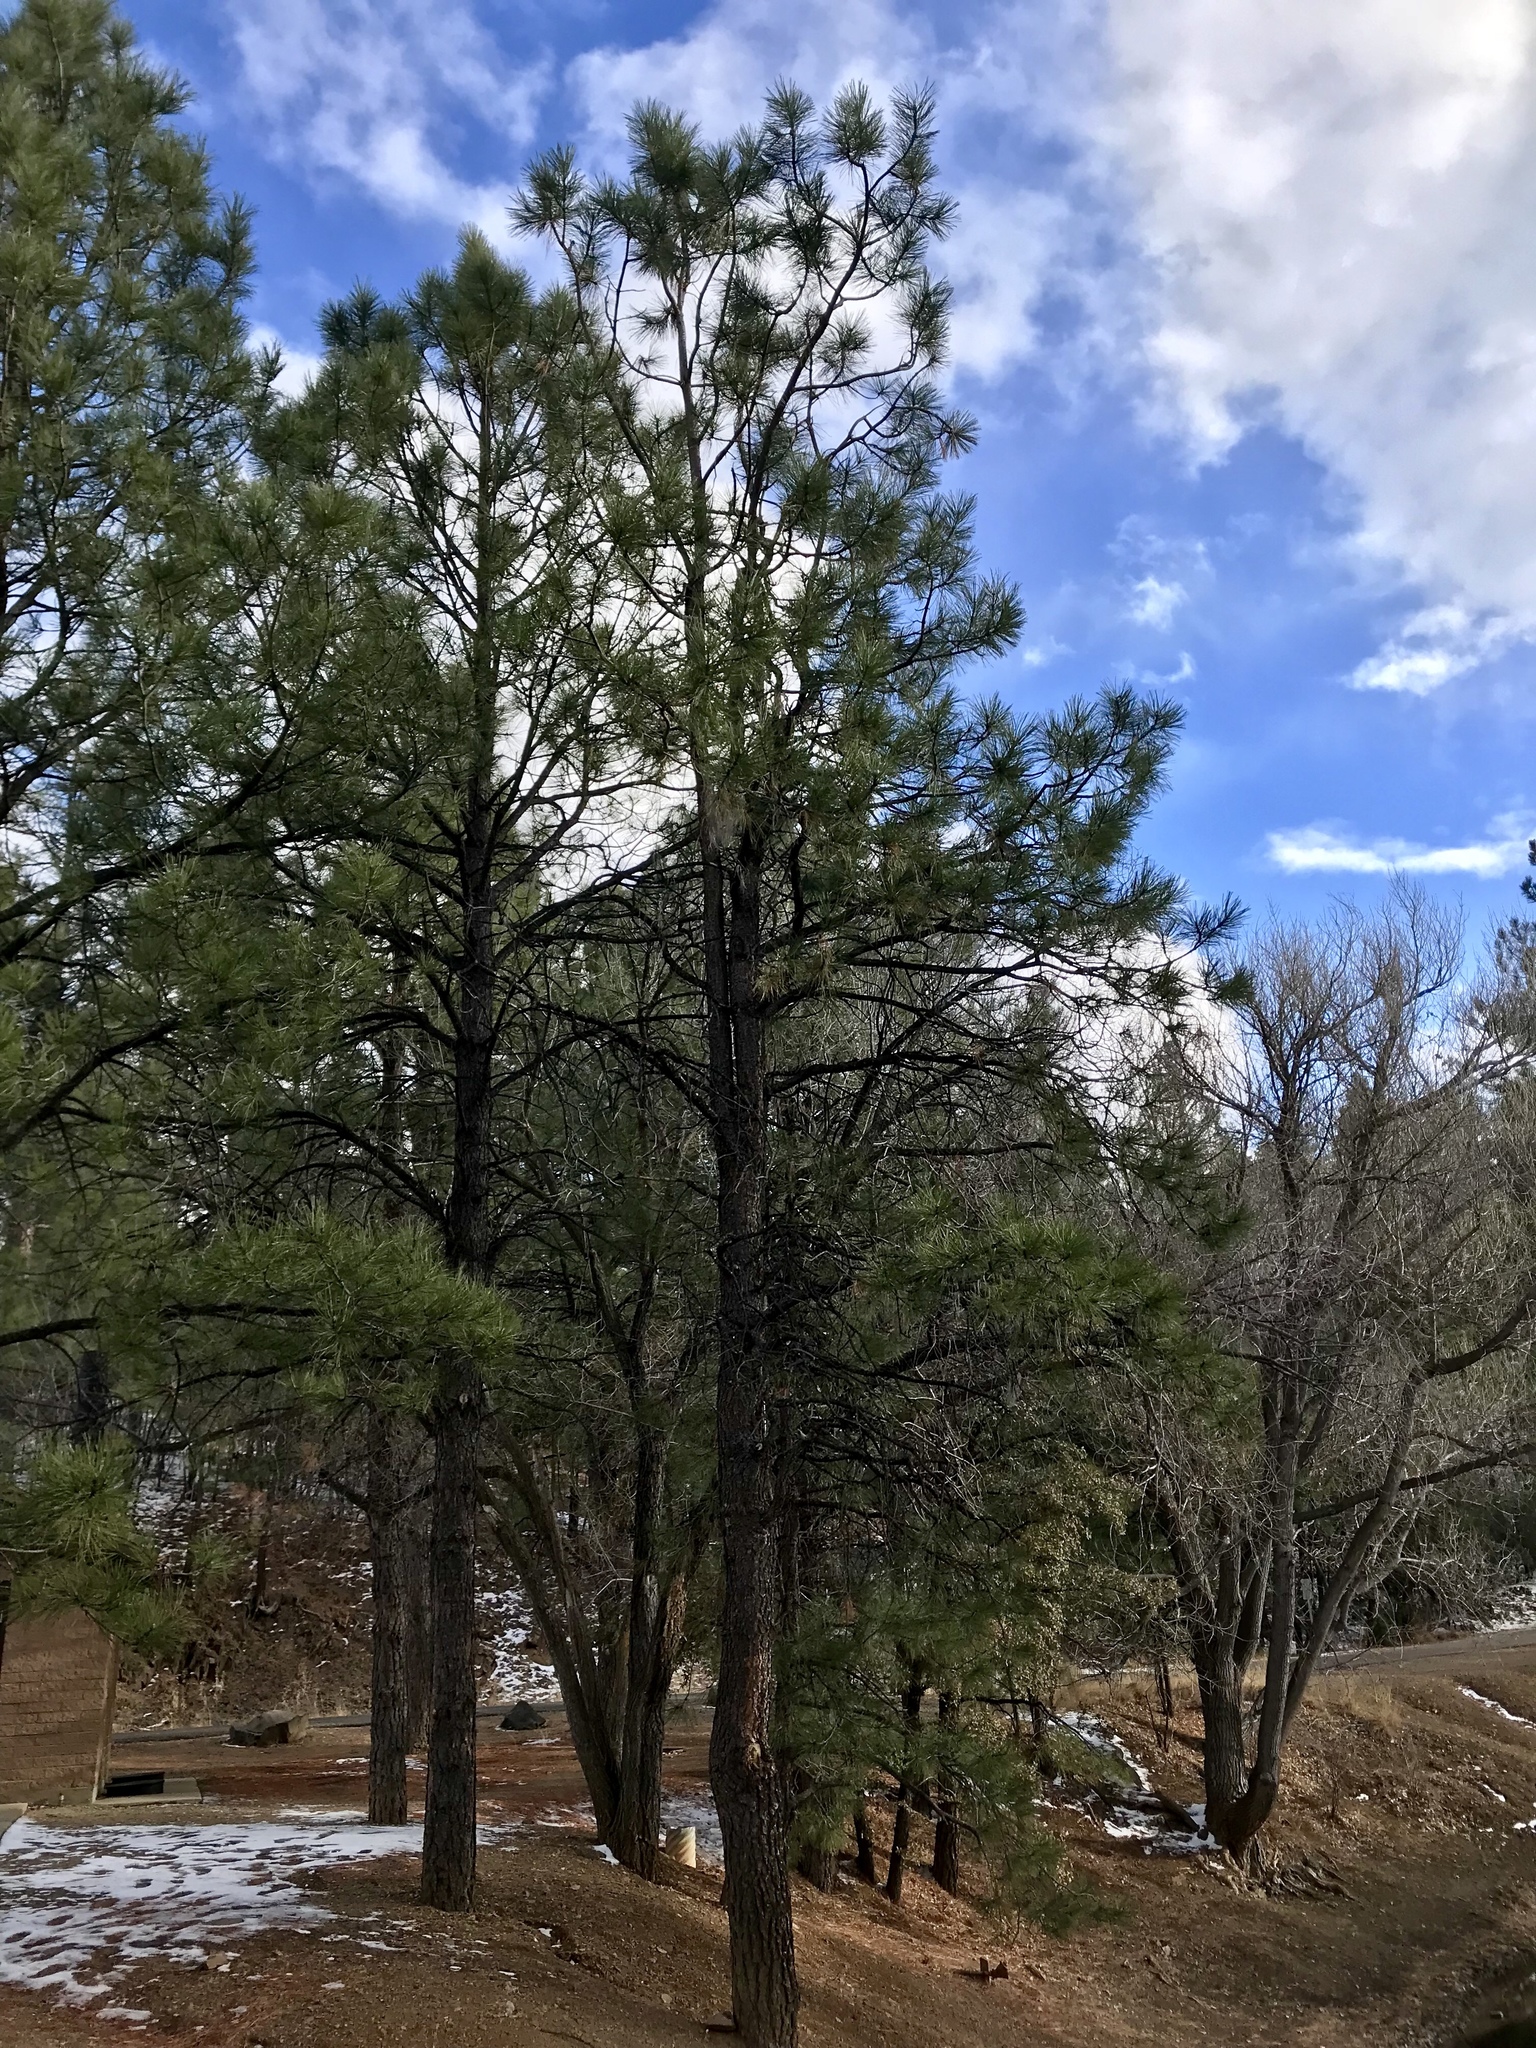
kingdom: Plantae
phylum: Tracheophyta
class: Pinopsida
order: Pinales
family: Pinaceae
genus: Pinus
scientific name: Pinus ponderosa
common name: Western yellow-pine
